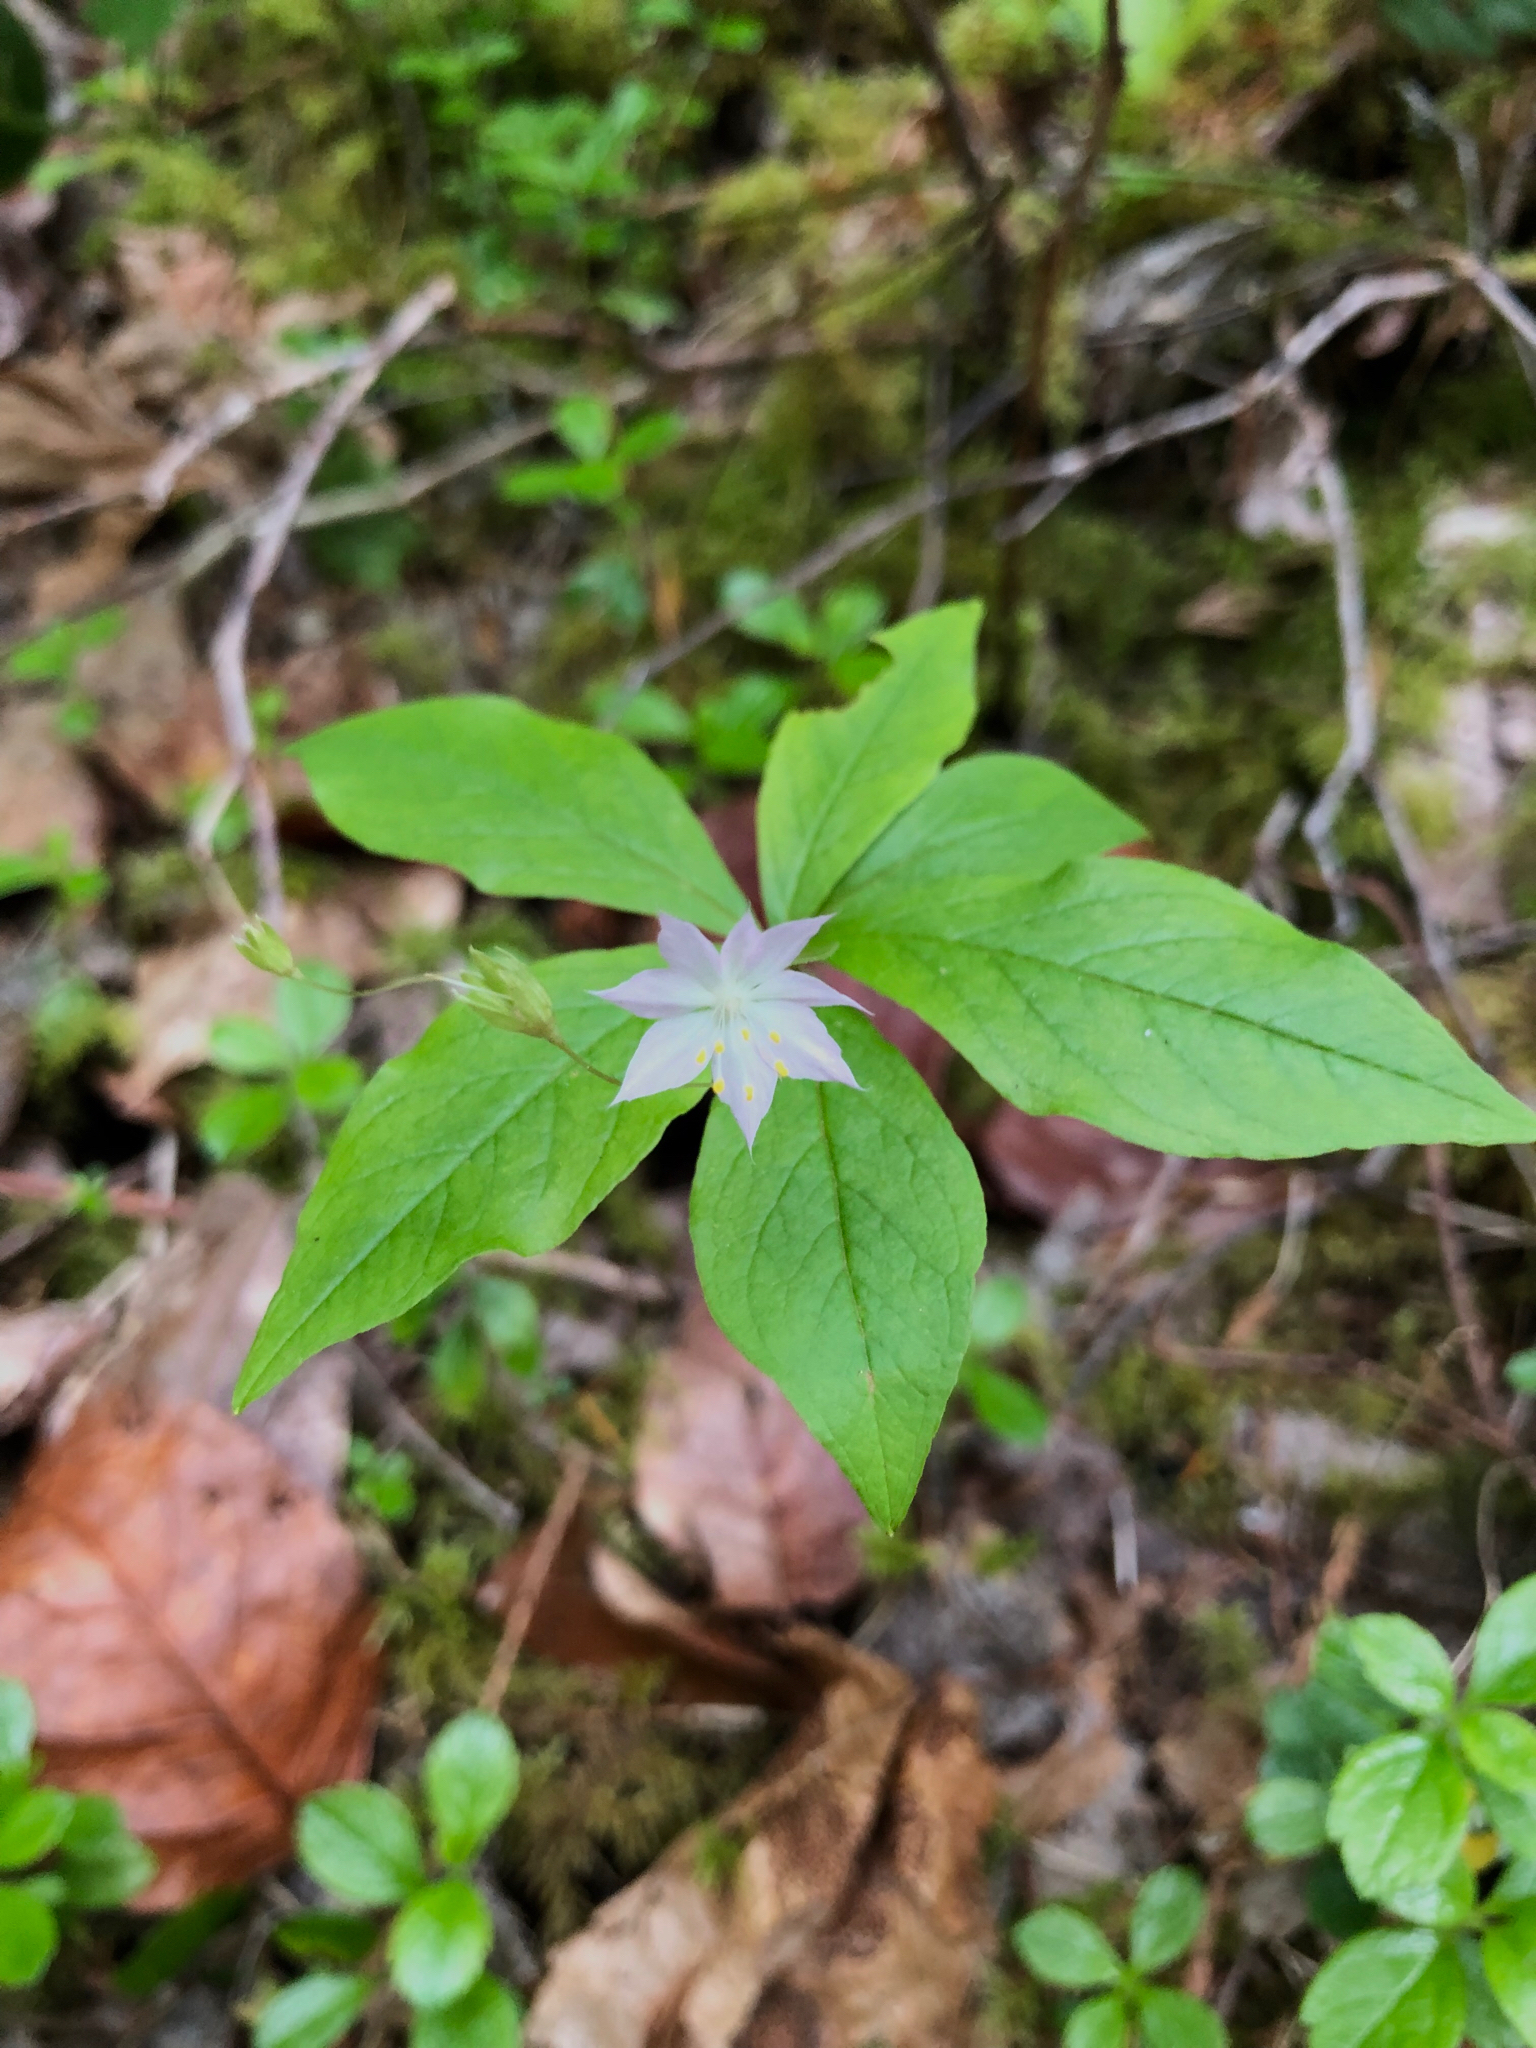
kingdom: Plantae
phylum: Tracheophyta
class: Magnoliopsida
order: Ericales
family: Primulaceae
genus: Lysimachia
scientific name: Lysimachia latifolia
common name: Pacific starflower
